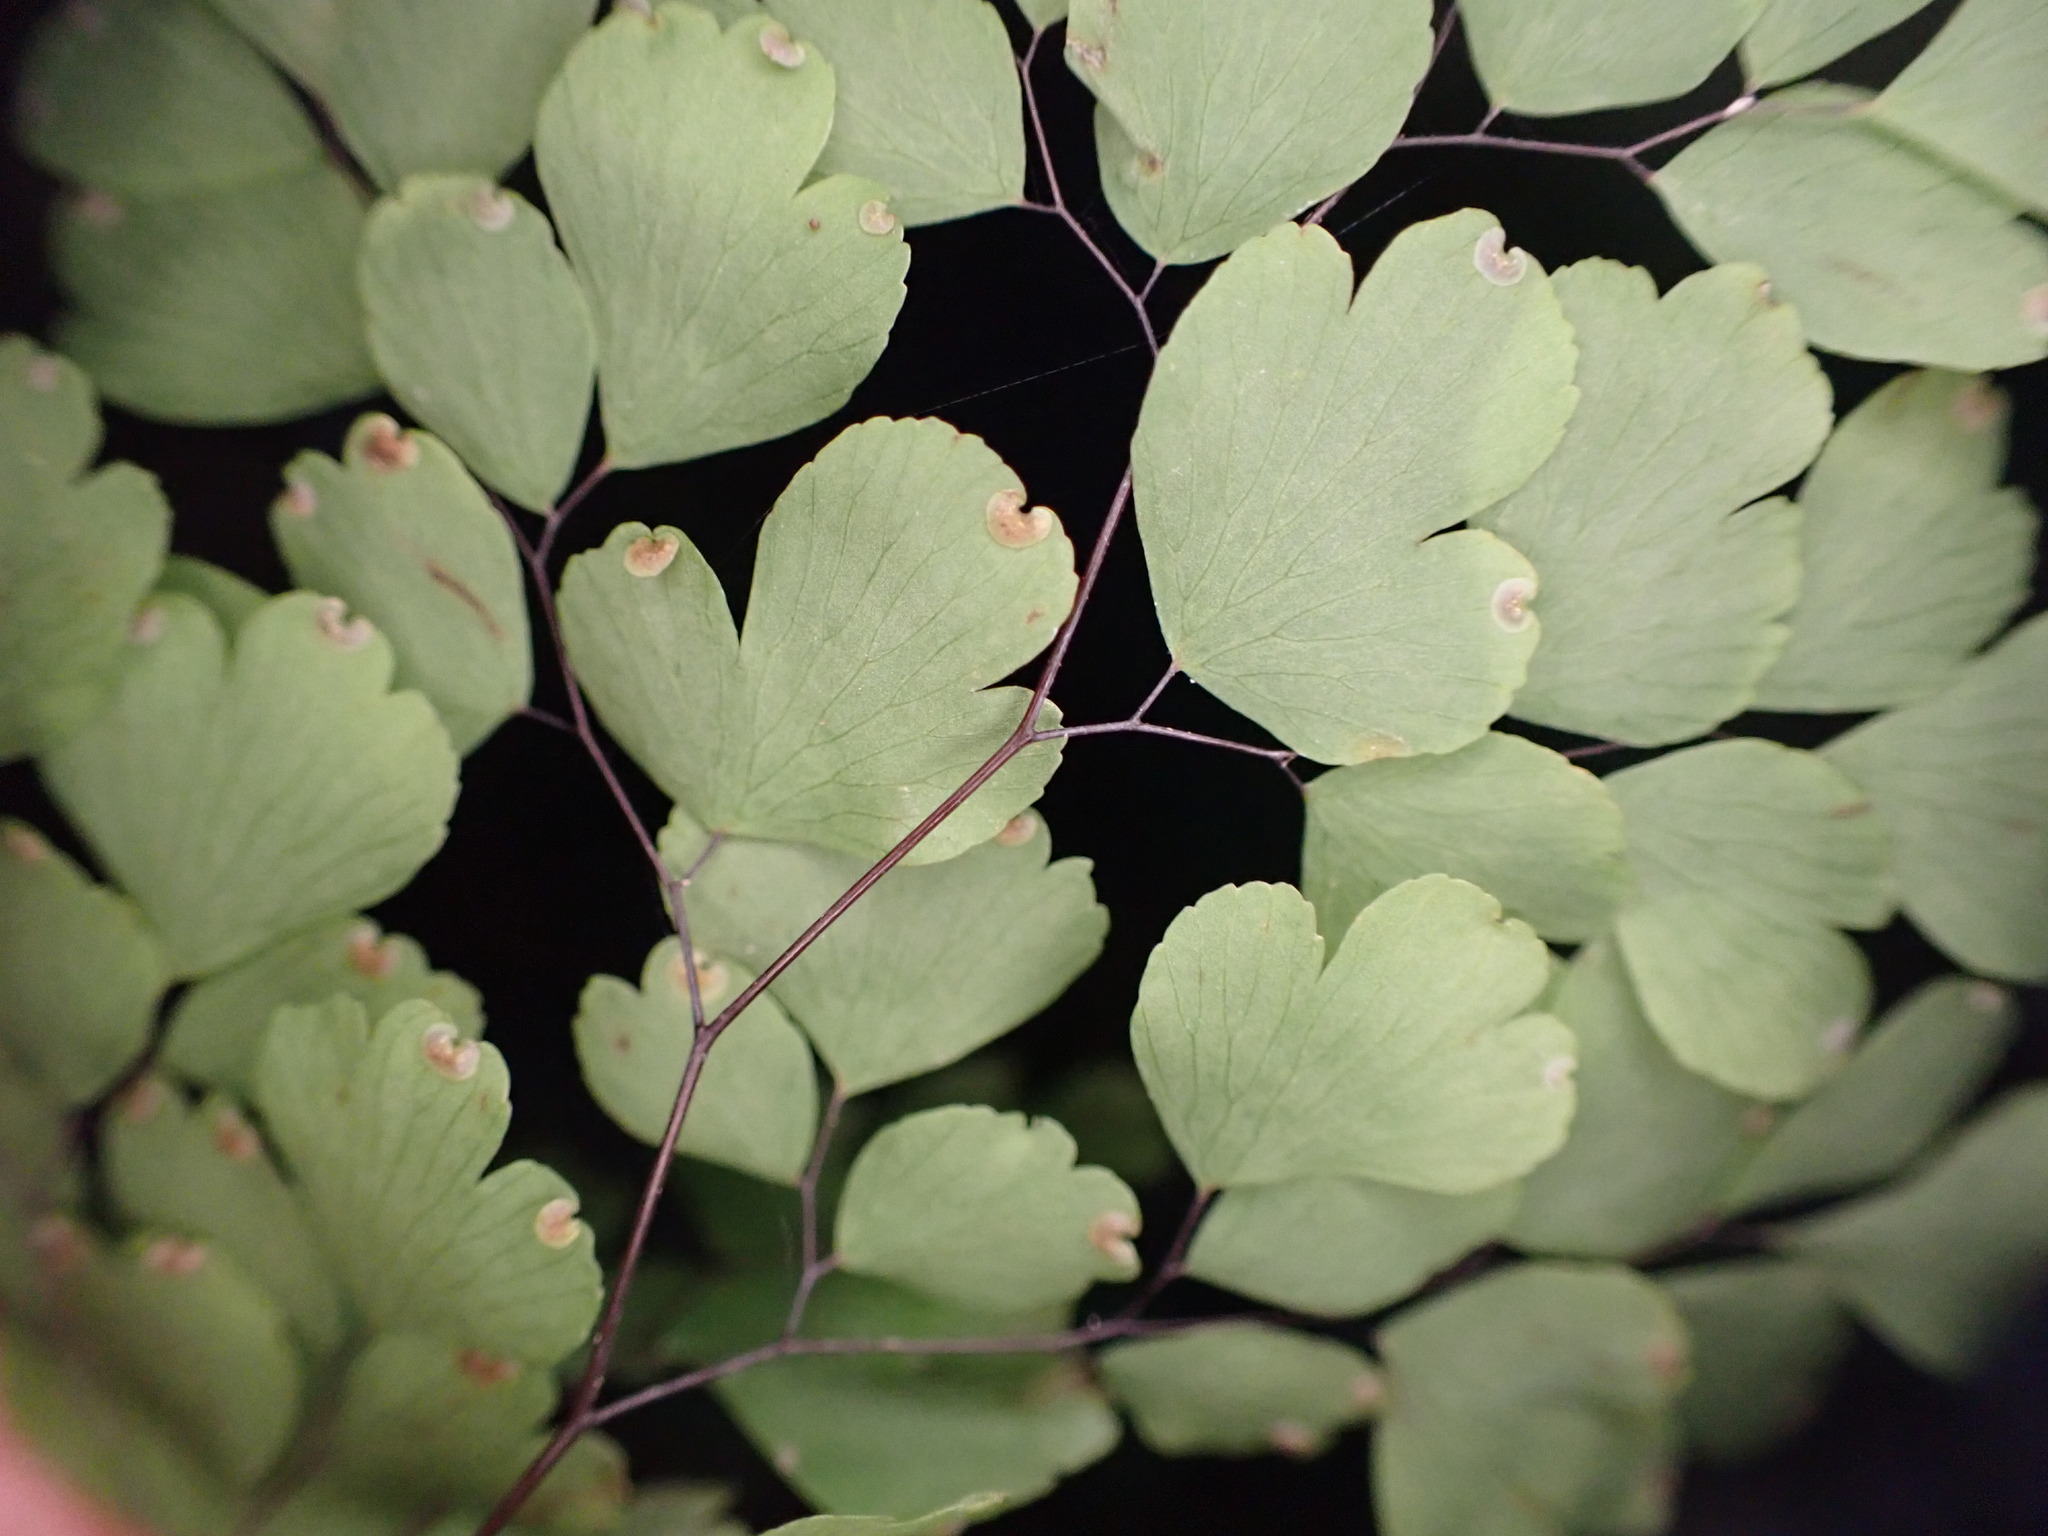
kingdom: Plantae
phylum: Tracheophyta
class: Polypodiopsida
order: Polypodiales
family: Pteridaceae
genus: Adiantum
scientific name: Adiantum raddianum
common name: Delta maidenhair fern
